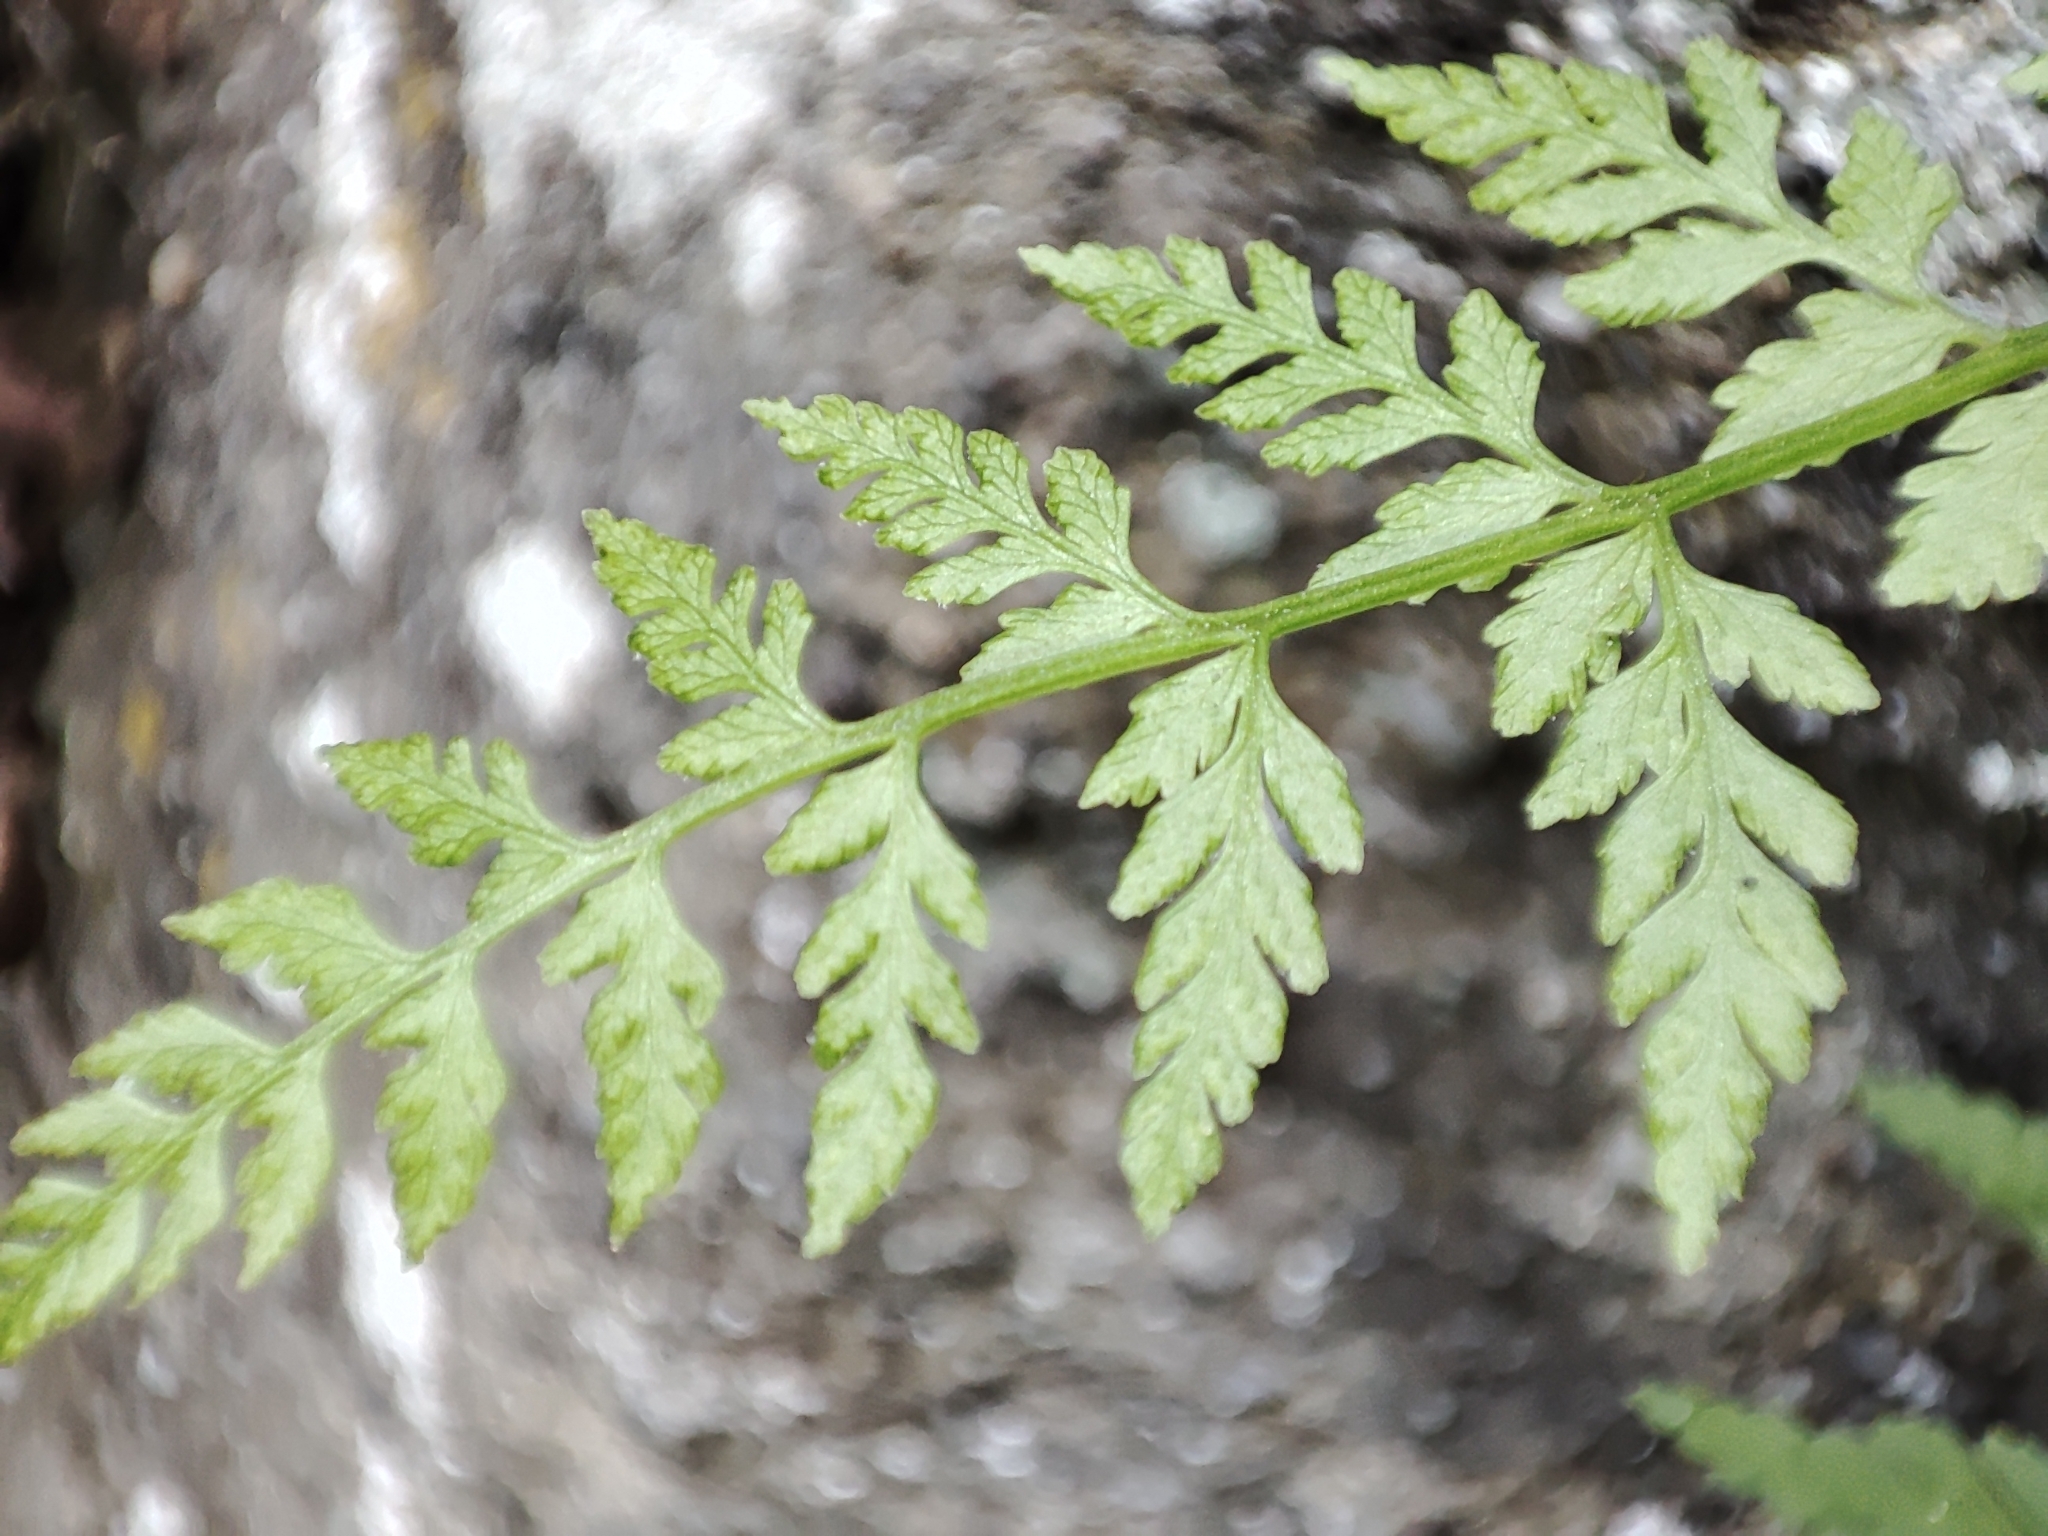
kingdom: Plantae
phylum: Tracheophyta
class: Polypodiopsida
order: Polypodiales
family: Cystopteridaceae
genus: Cystopteris
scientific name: Cystopteris fragilis
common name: Brittle bladder fern
